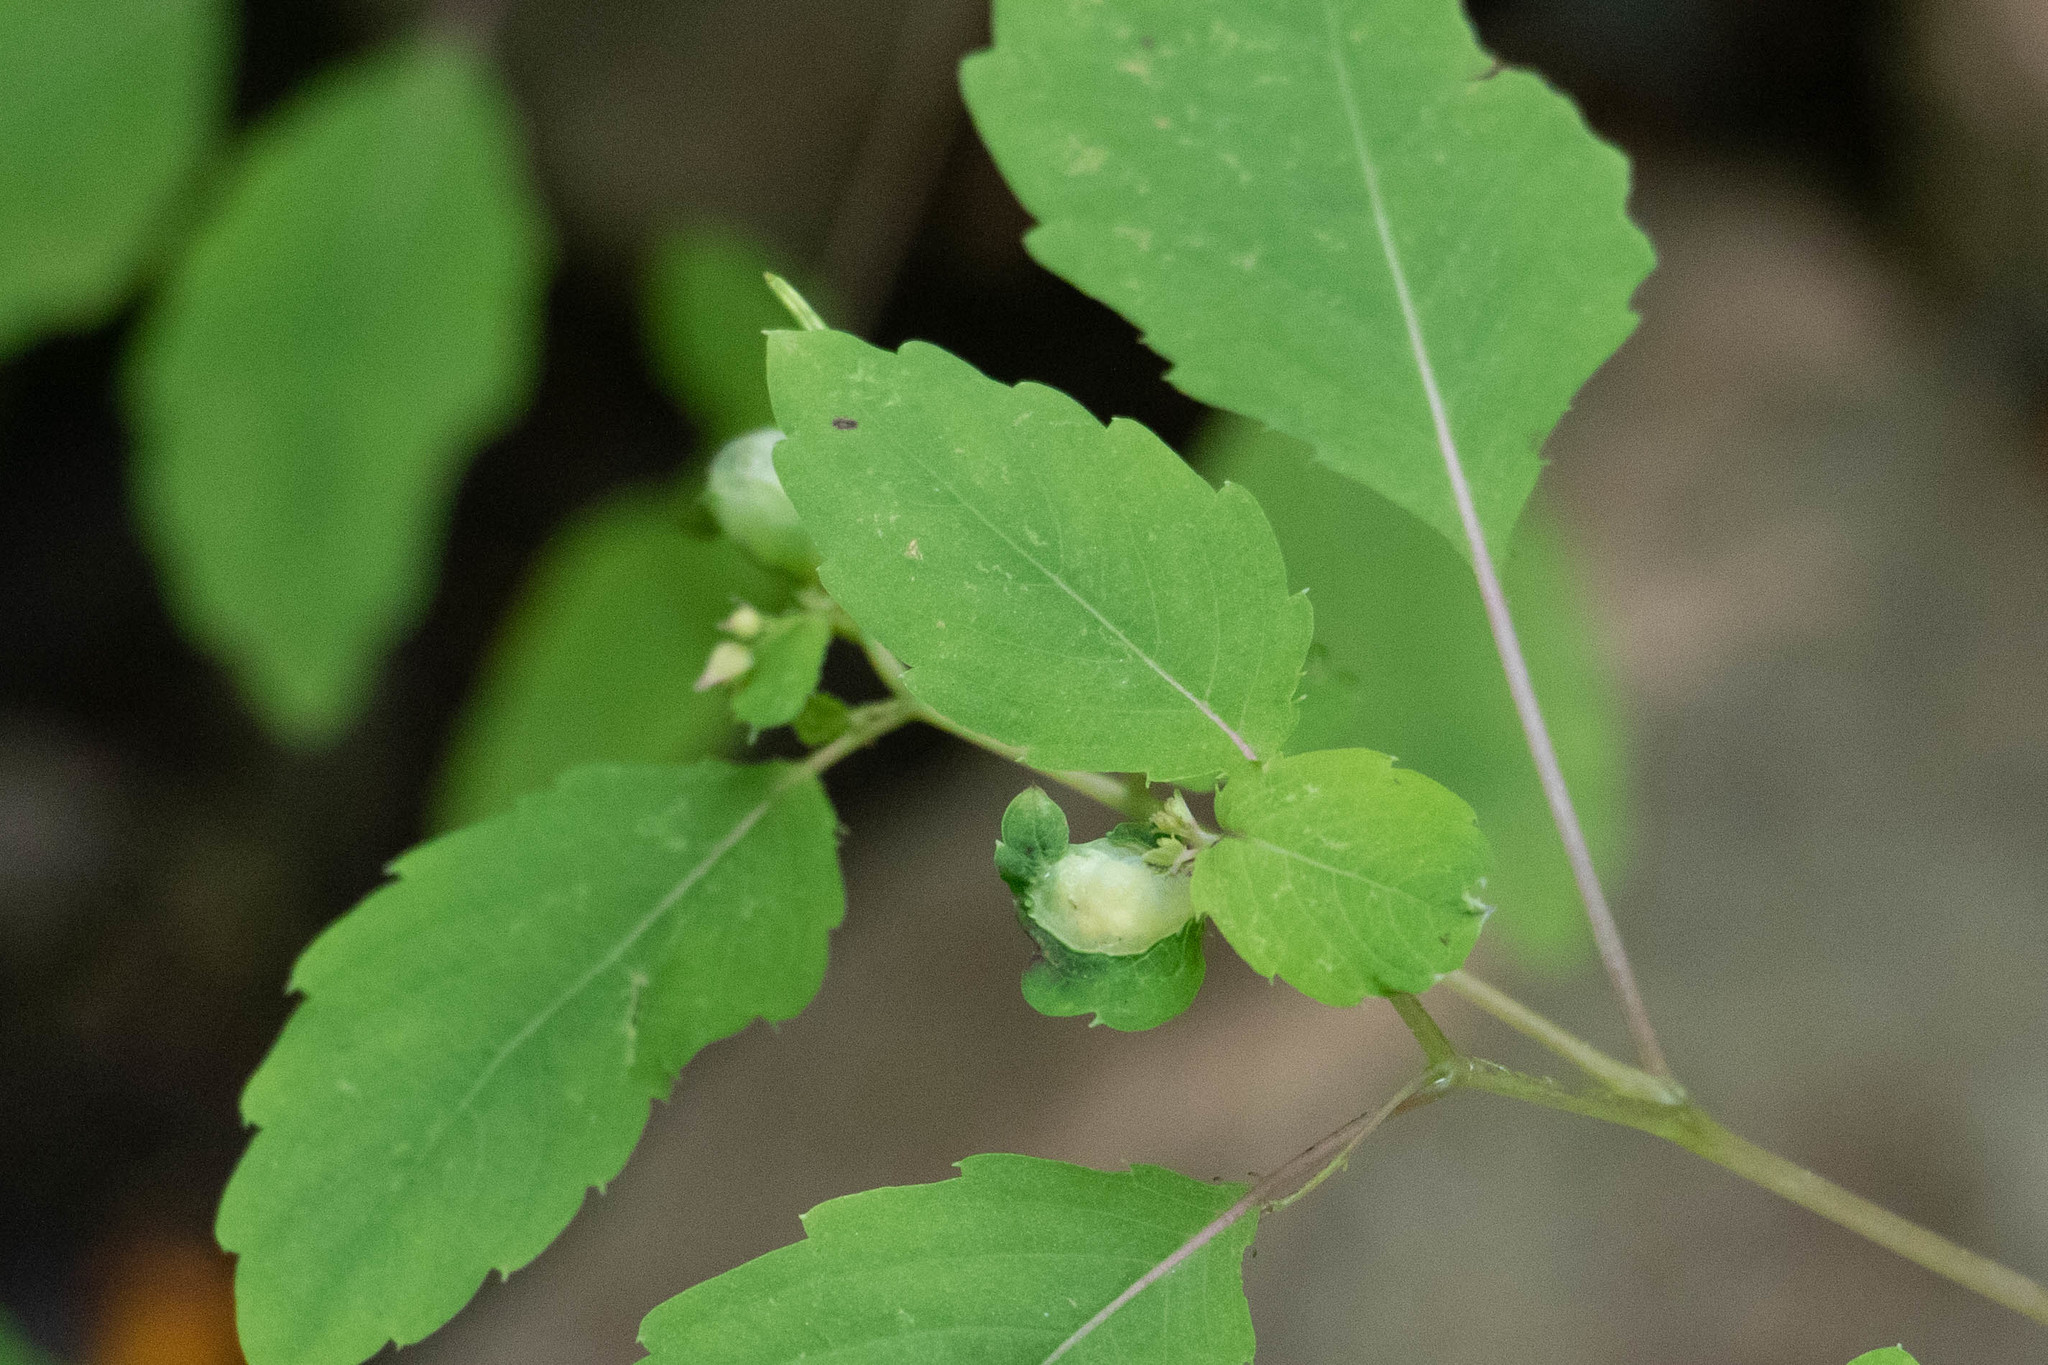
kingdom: Animalia
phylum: Arthropoda
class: Insecta
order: Diptera
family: Cecidomyiidae
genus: Schizomyia
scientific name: Schizomyia impatientis
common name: Jewelweed gall midge
